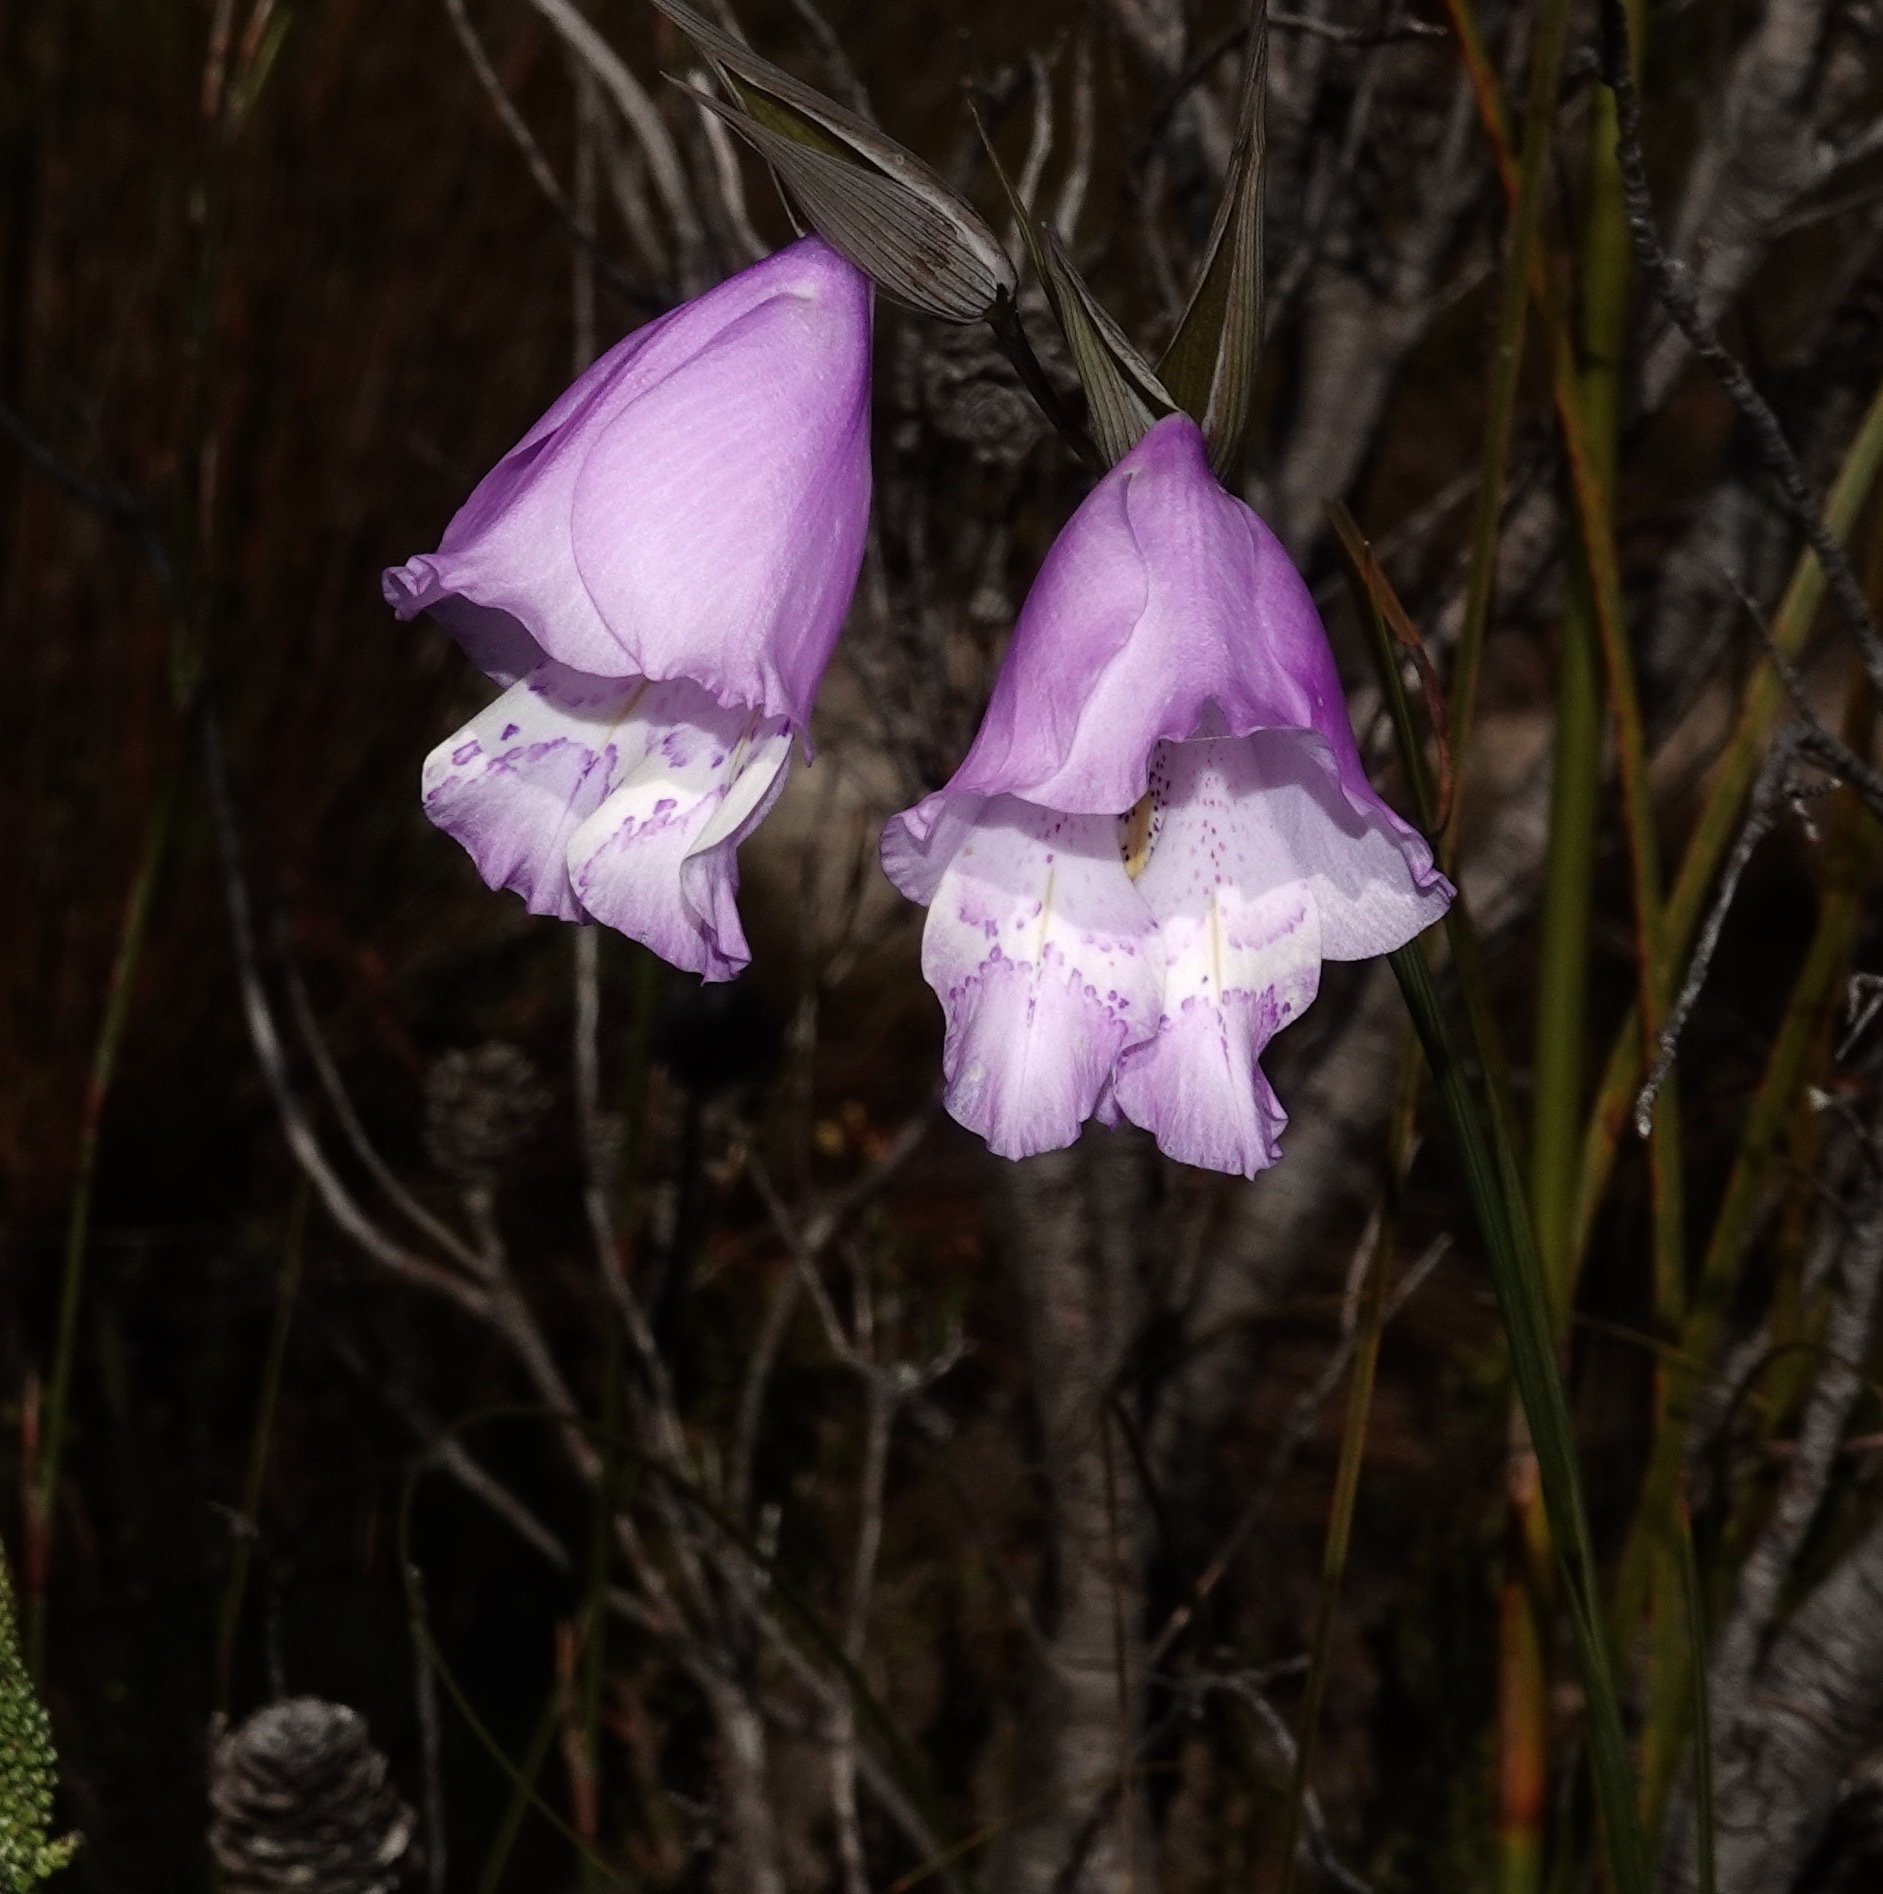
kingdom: Plantae
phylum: Tracheophyta
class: Liliopsida
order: Asparagales
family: Iridaceae
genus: Gladiolus
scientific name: Gladiolus bullatus
